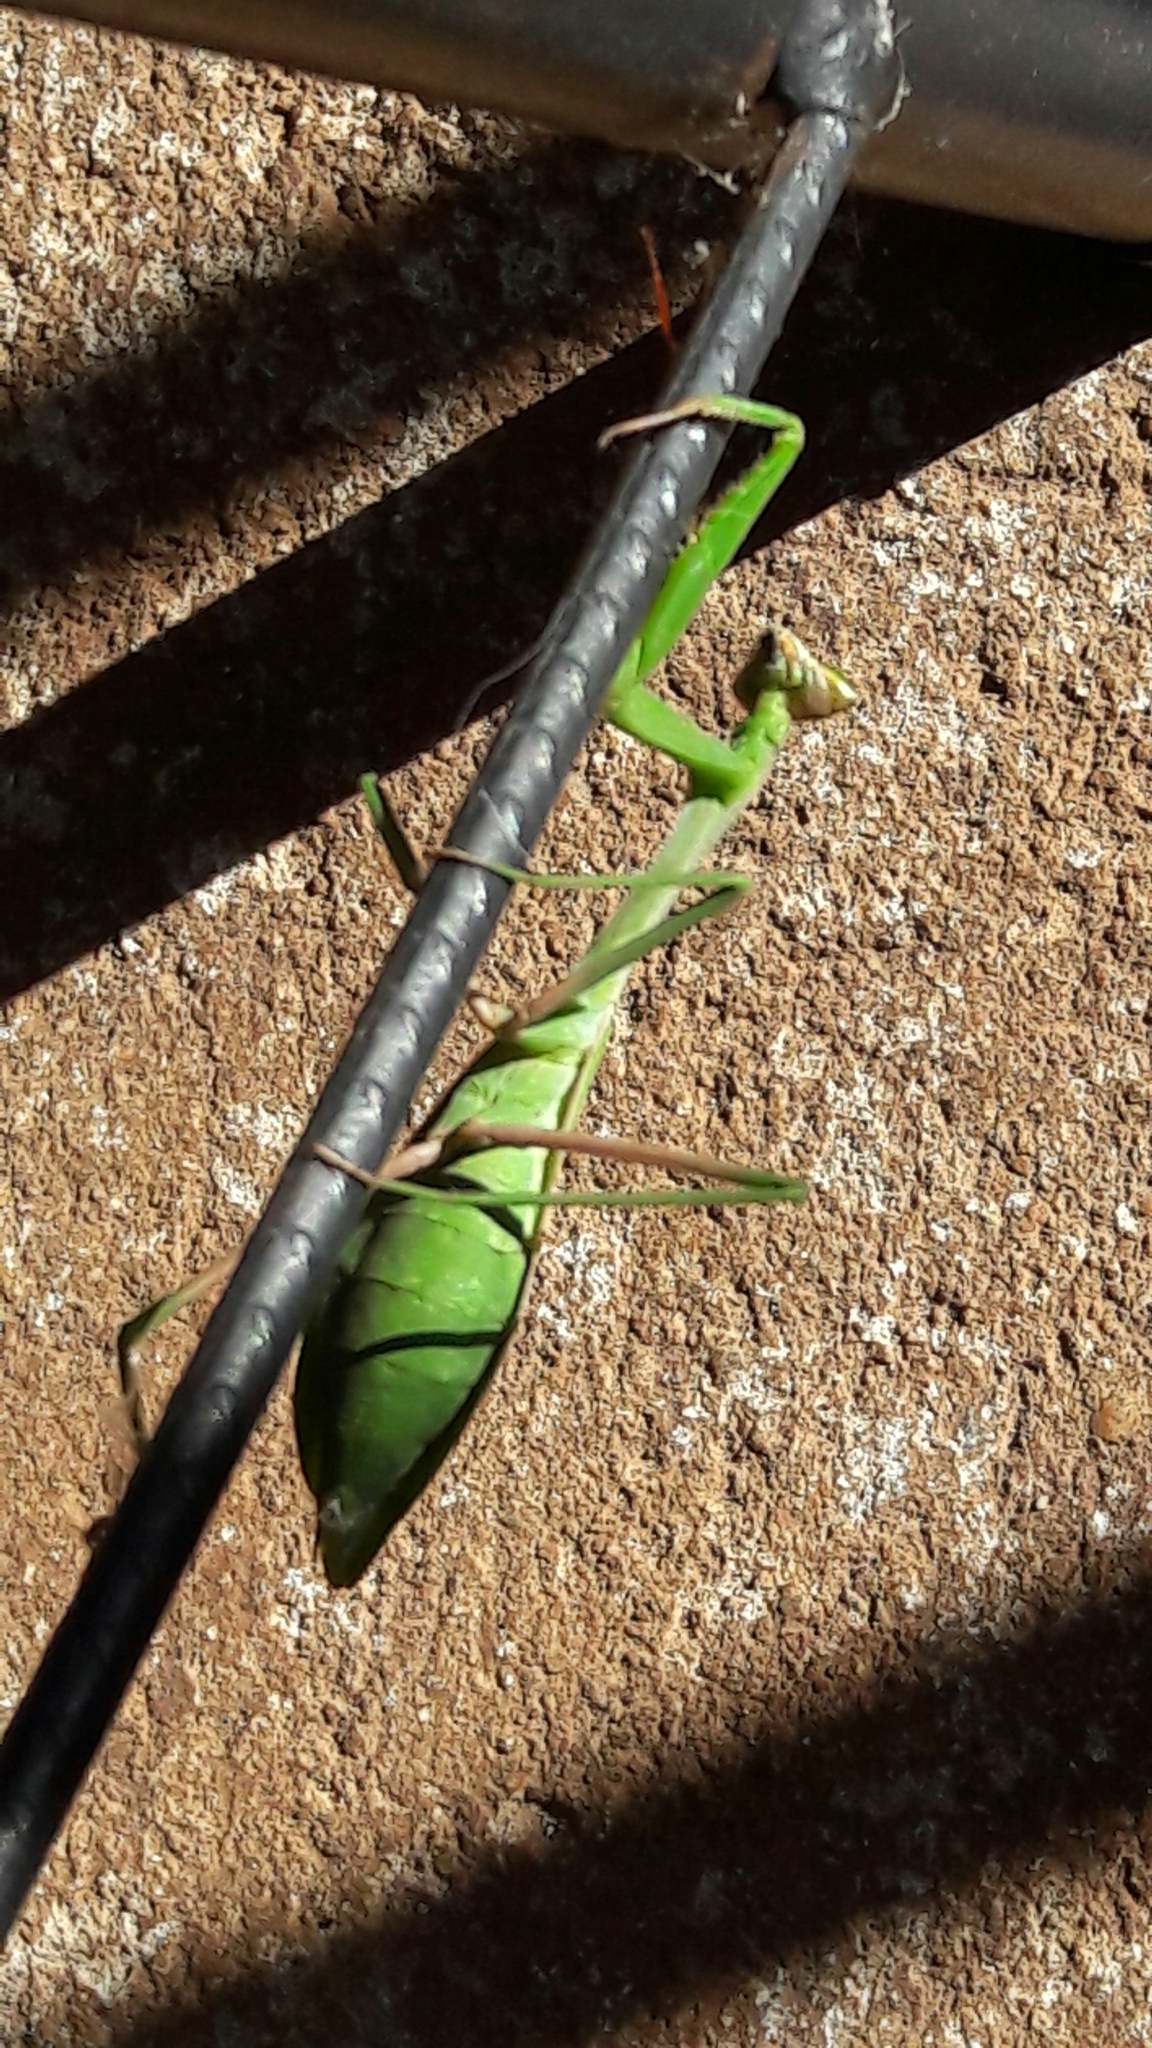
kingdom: Animalia
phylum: Arthropoda
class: Insecta
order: Mantodea
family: Mantidae
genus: Oxyopsis
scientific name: Oxyopsis
